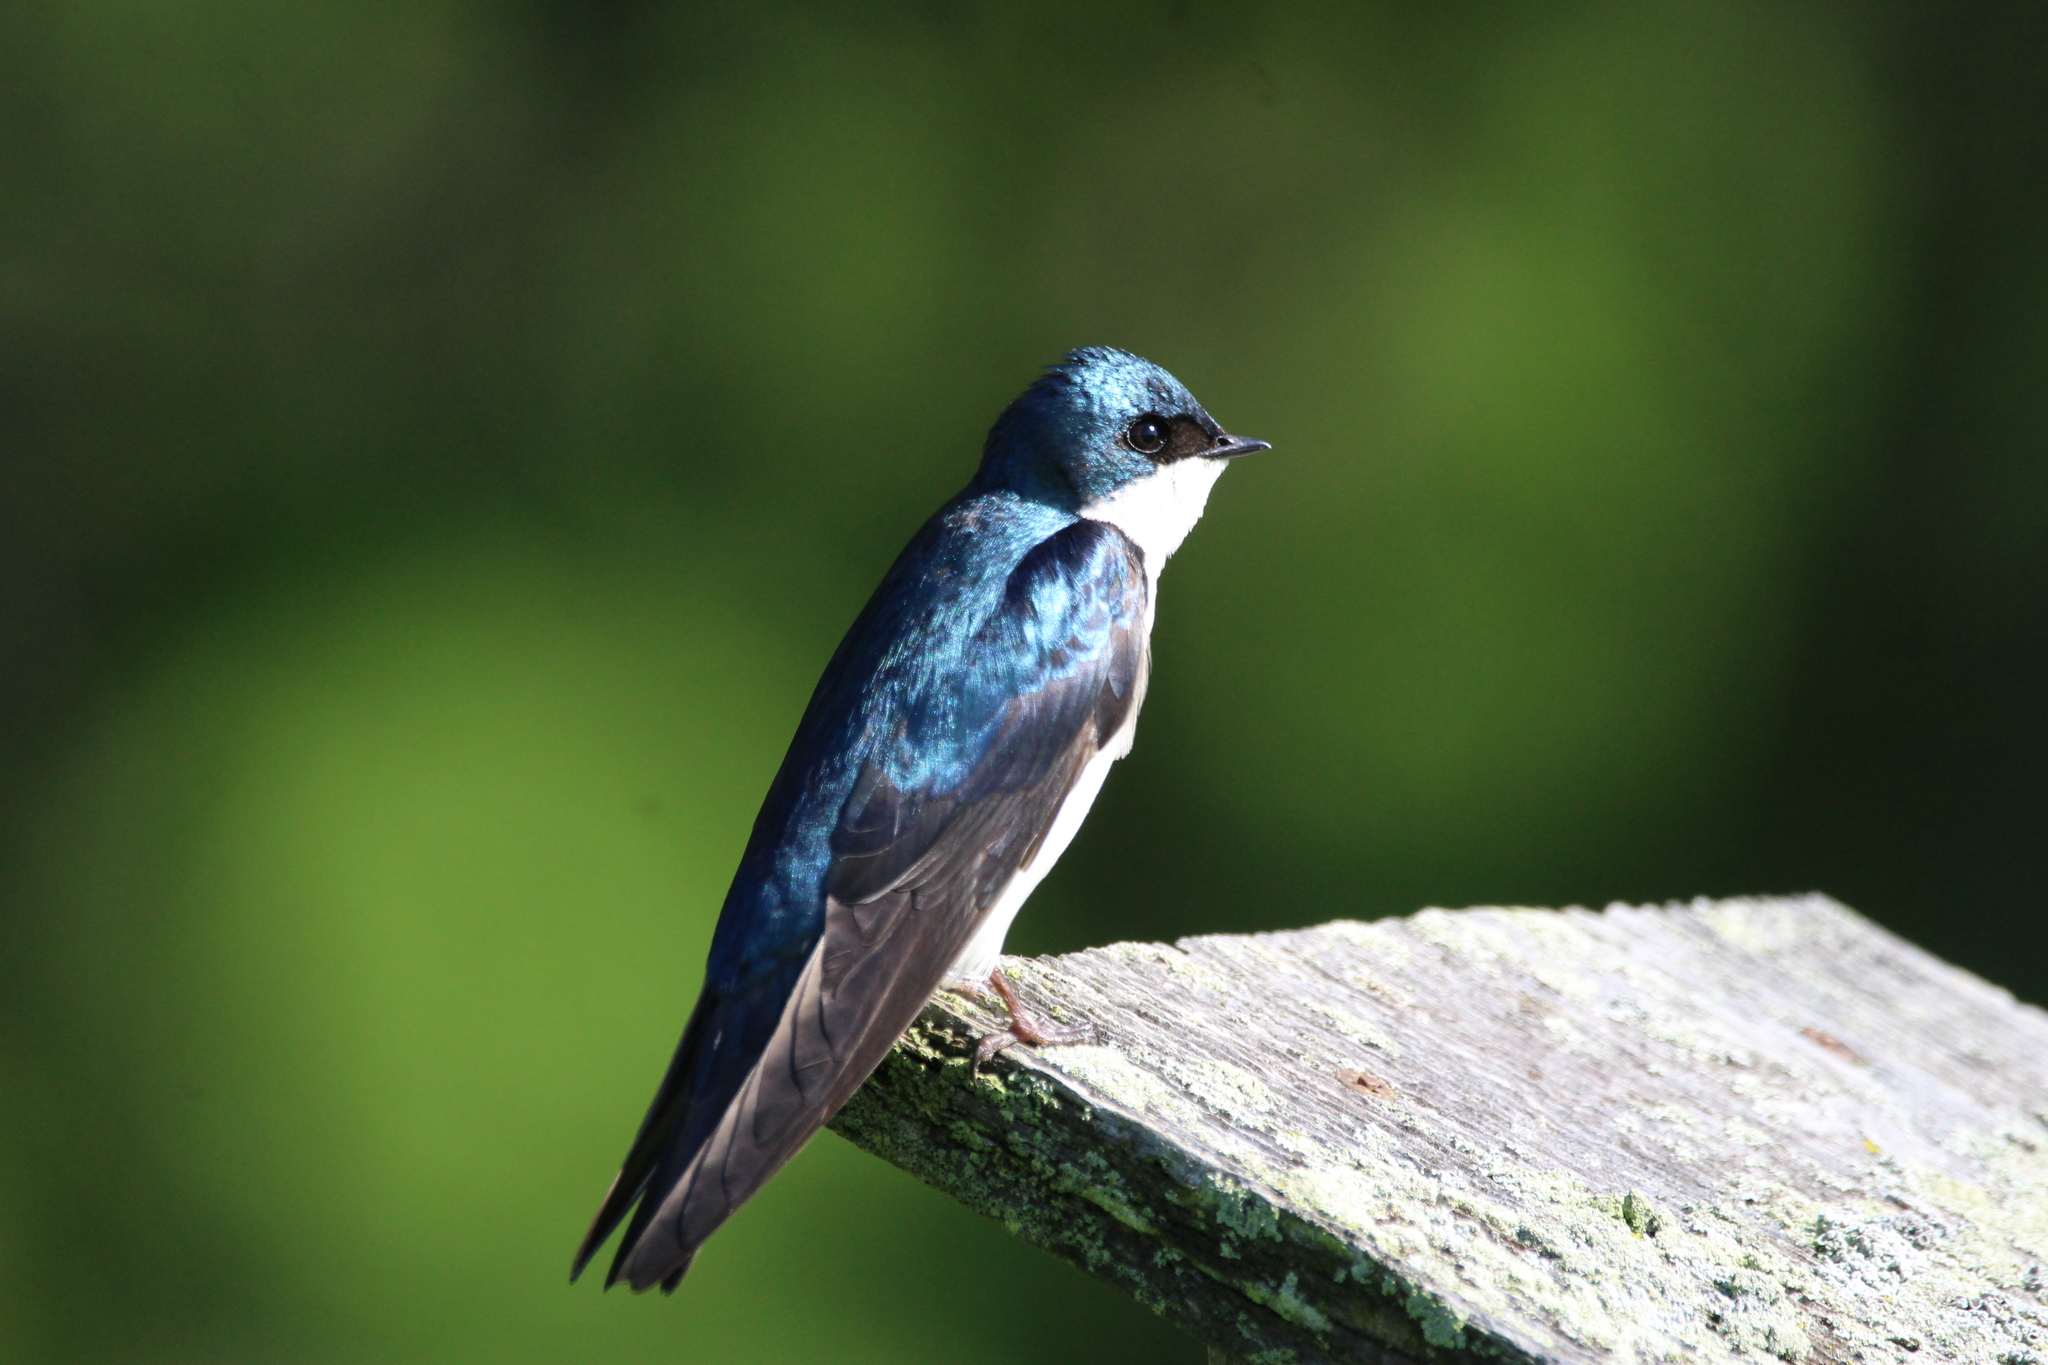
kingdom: Animalia
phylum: Chordata
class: Aves
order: Passeriformes
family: Hirundinidae
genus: Tachycineta
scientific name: Tachycineta bicolor
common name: Tree swallow
